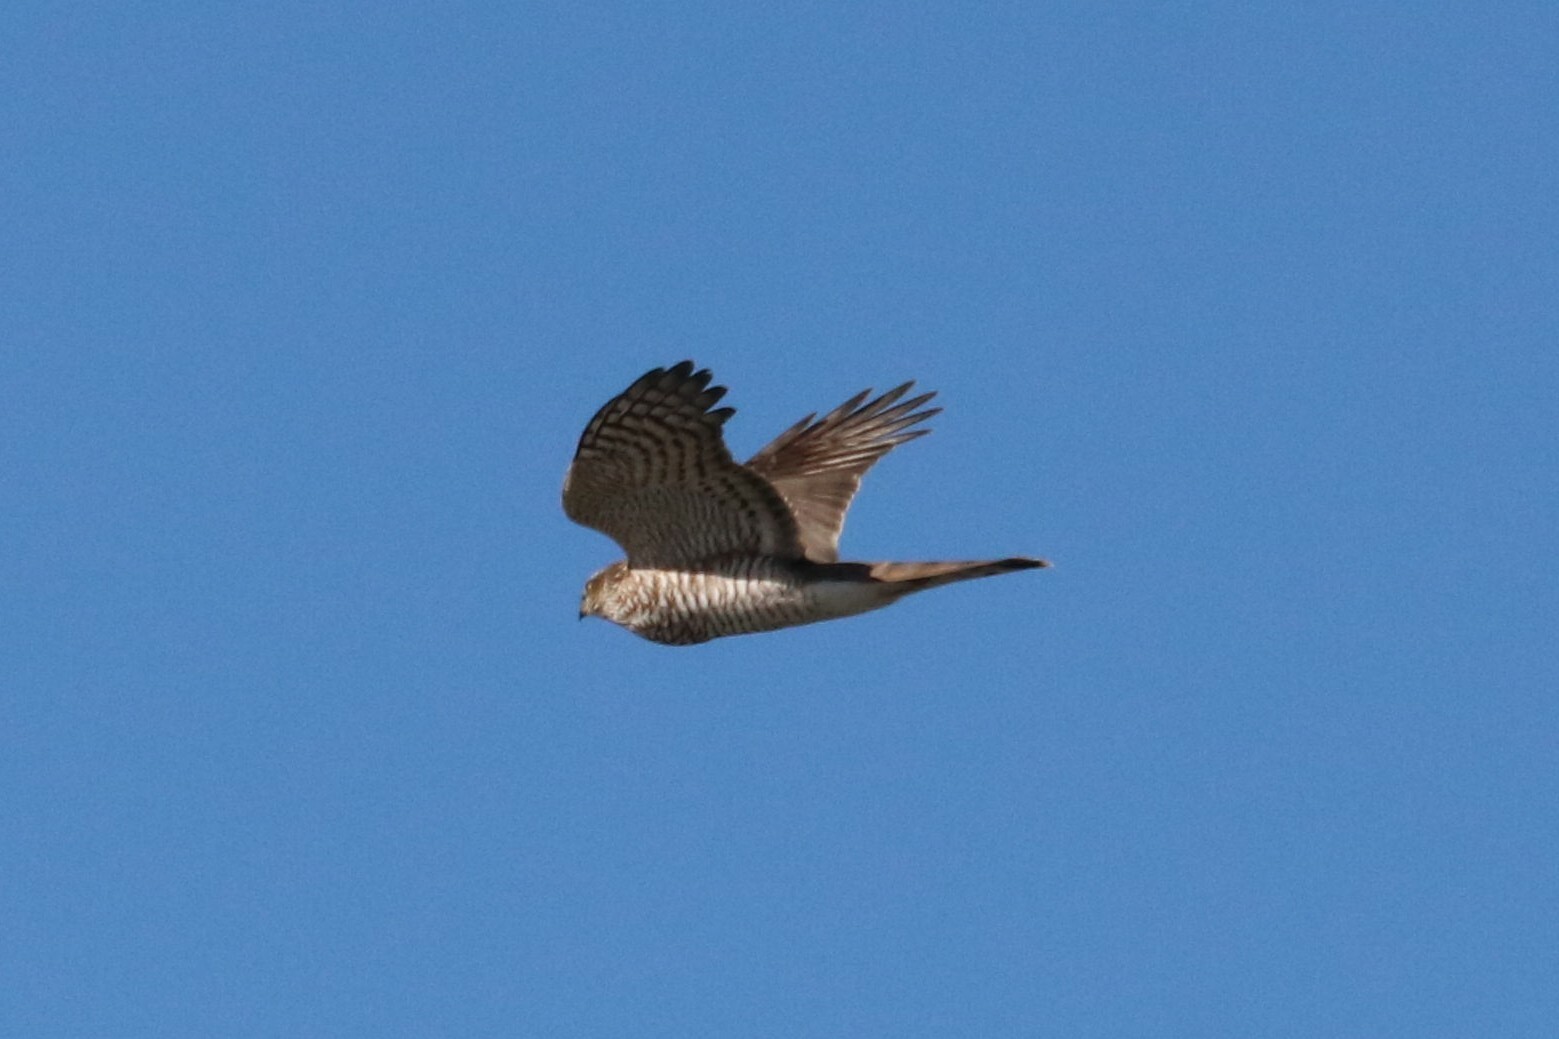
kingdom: Animalia
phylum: Chordata
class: Aves
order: Accipitriformes
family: Accipitridae
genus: Accipiter
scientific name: Accipiter nisus
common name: Eurasian sparrowhawk
